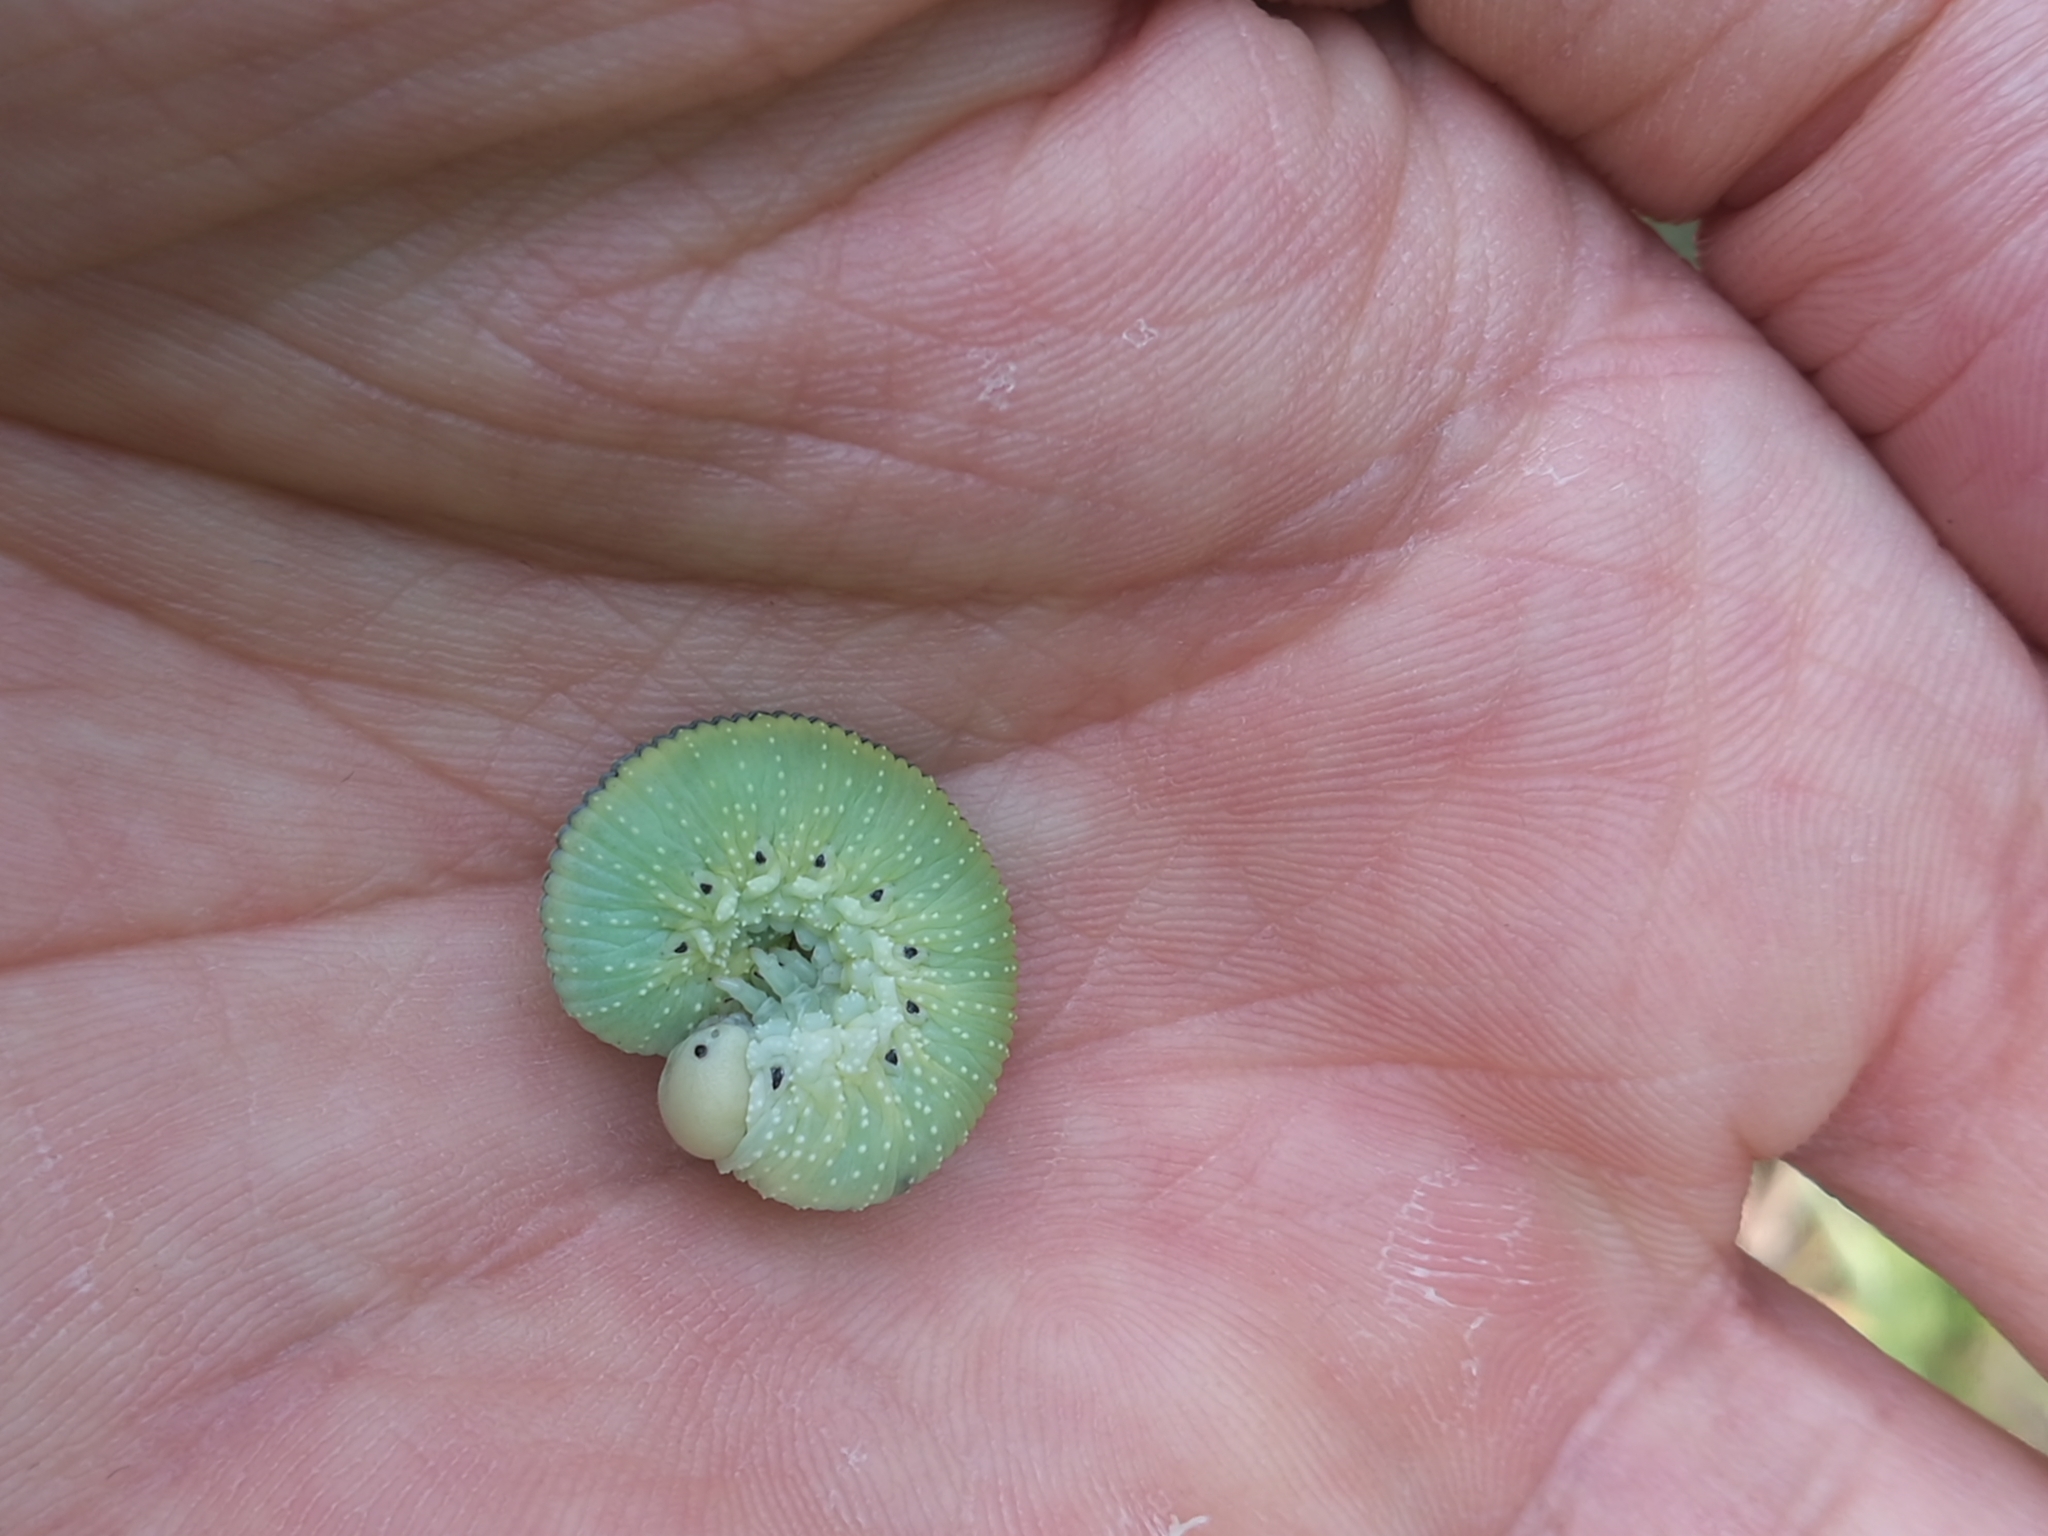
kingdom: Animalia
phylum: Arthropoda
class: Insecta
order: Hymenoptera
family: Cimbicidae
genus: Cimbex
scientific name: Cimbex femoratus
